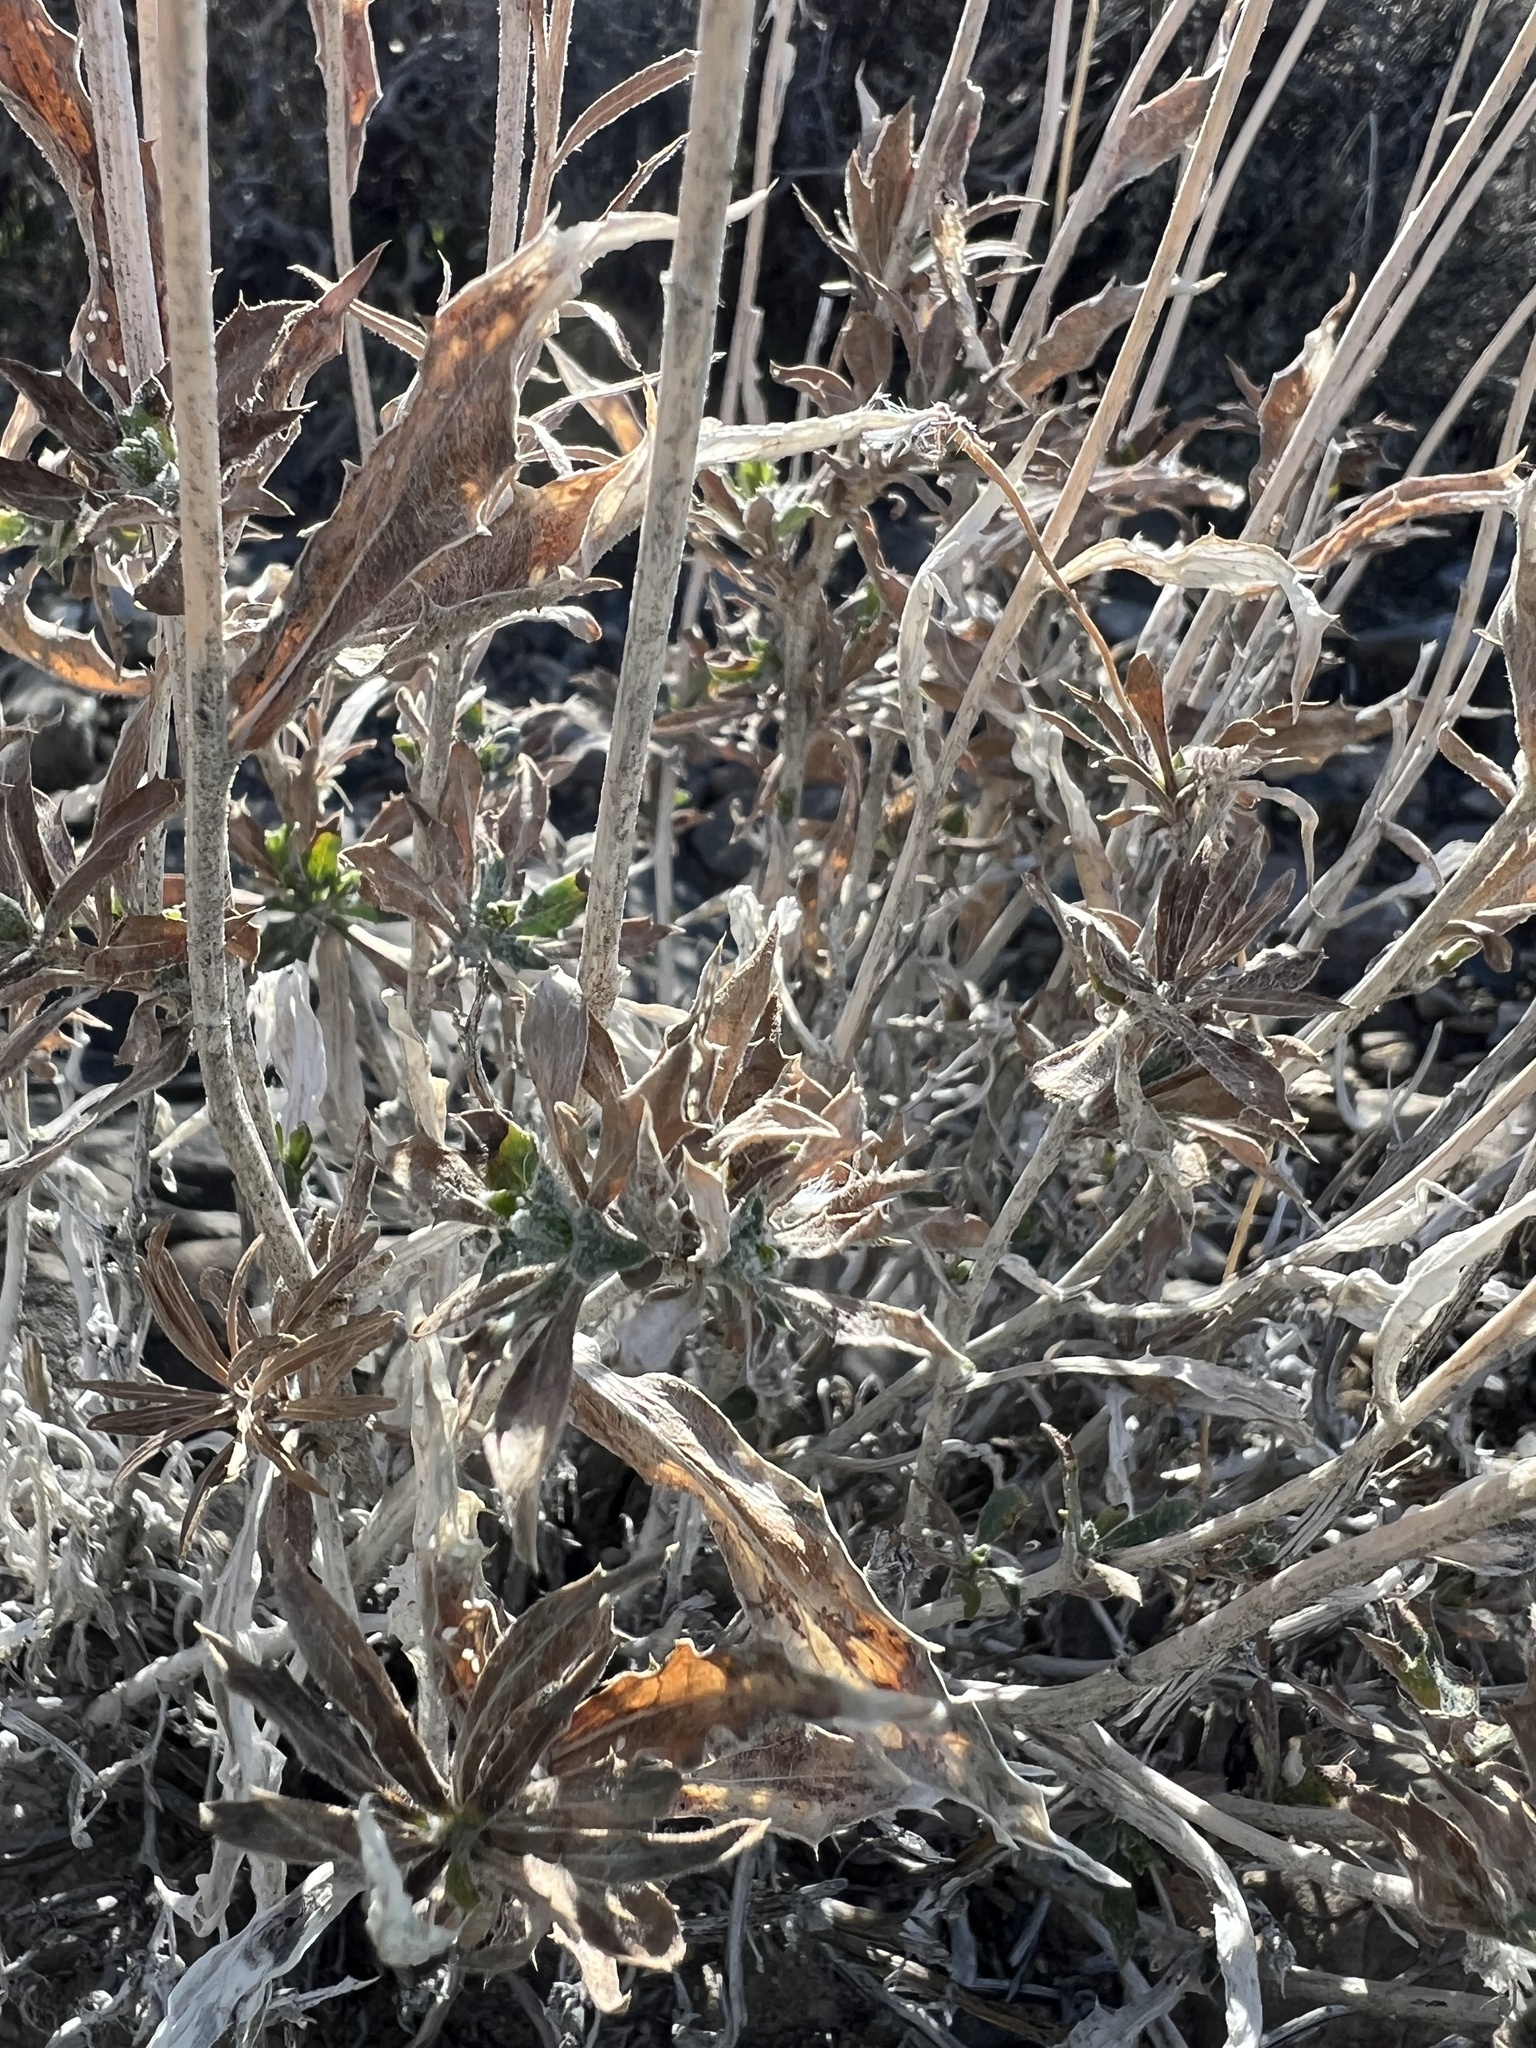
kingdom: Plantae
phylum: Tracheophyta
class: Magnoliopsida
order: Asterales
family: Asteraceae
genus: Xylorhiza
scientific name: Xylorhiza tortifolia
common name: Hurt-leaf woody-aster
